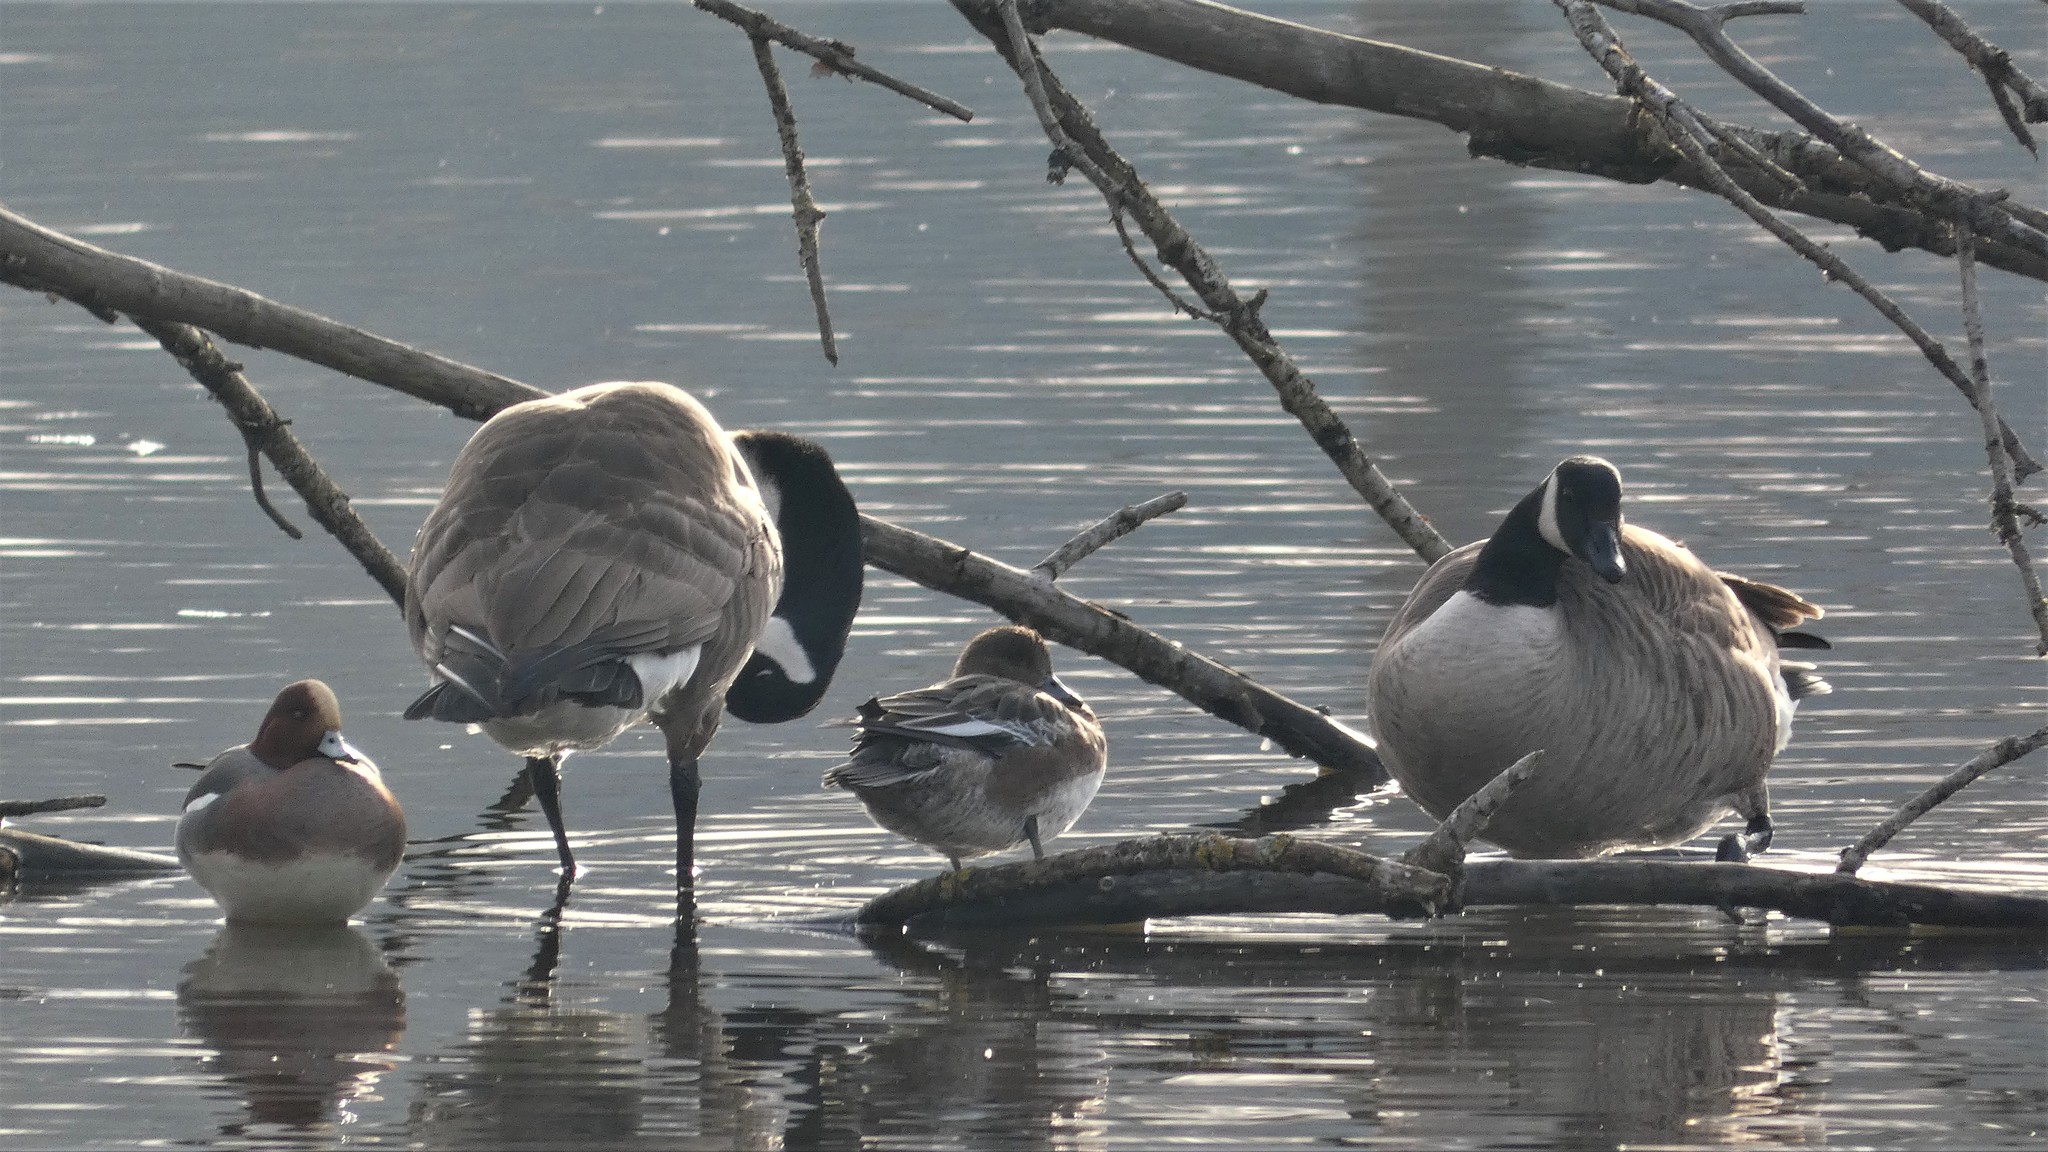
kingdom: Animalia
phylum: Chordata
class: Aves
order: Anseriformes
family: Anatidae
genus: Mareca
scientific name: Mareca penelope
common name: Eurasian wigeon
